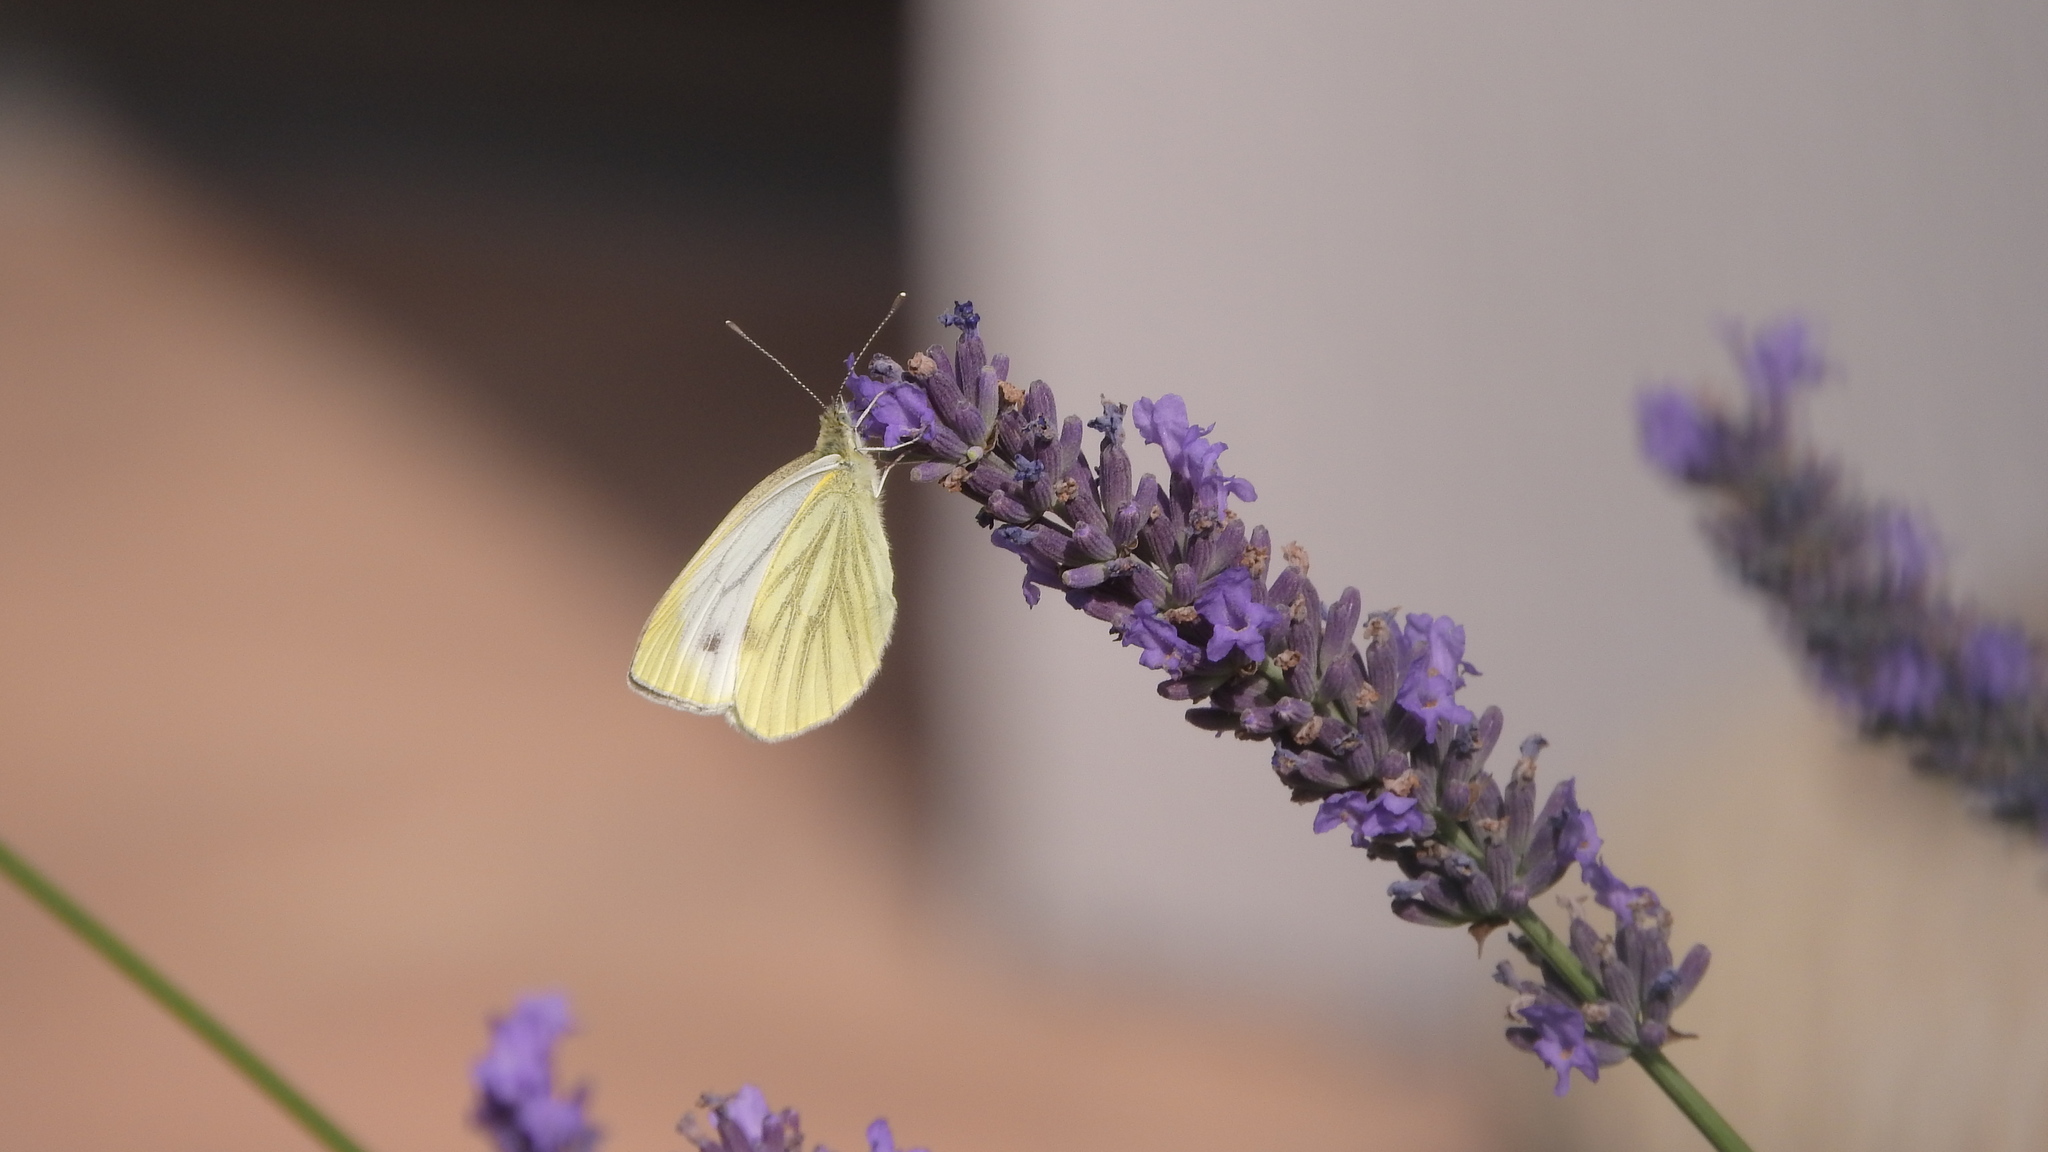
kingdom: Animalia
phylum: Arthropoda
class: Insecta
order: Lepidoptera
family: Pieridae
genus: Pieris
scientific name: Pieris napi
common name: Green-veined white
